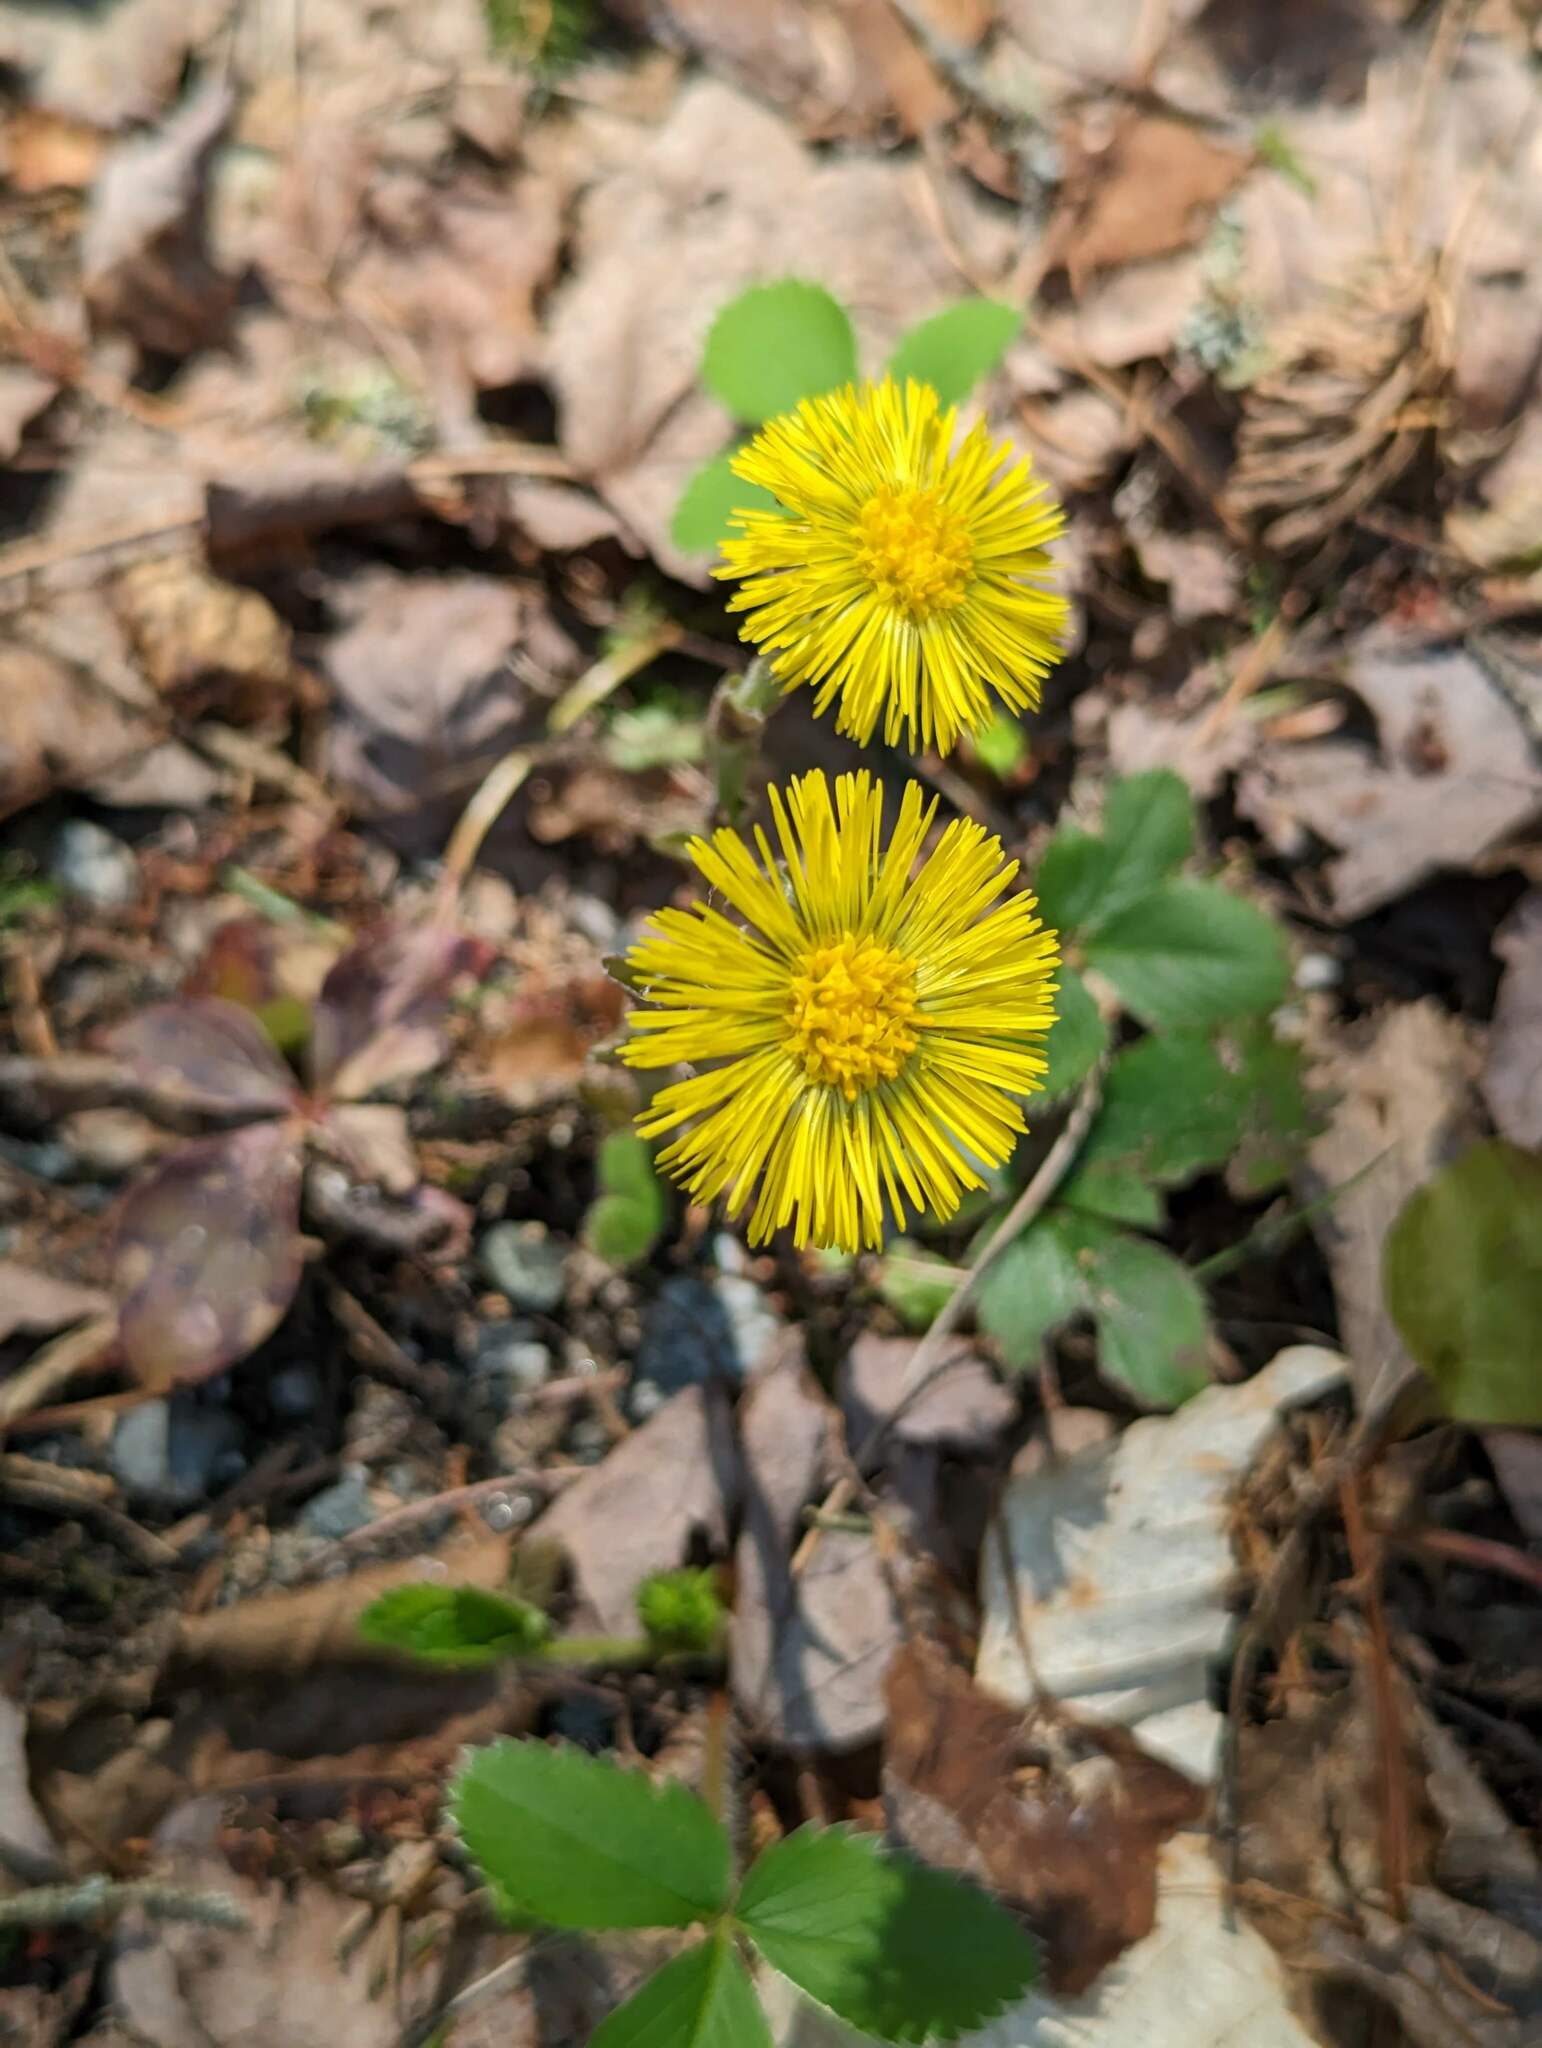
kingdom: Plantae
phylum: Tracheophyta
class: Magnoliopsida
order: Asterales
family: Asteraceae
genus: Tussilago
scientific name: Tussilago farfara
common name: Coltsfoot
